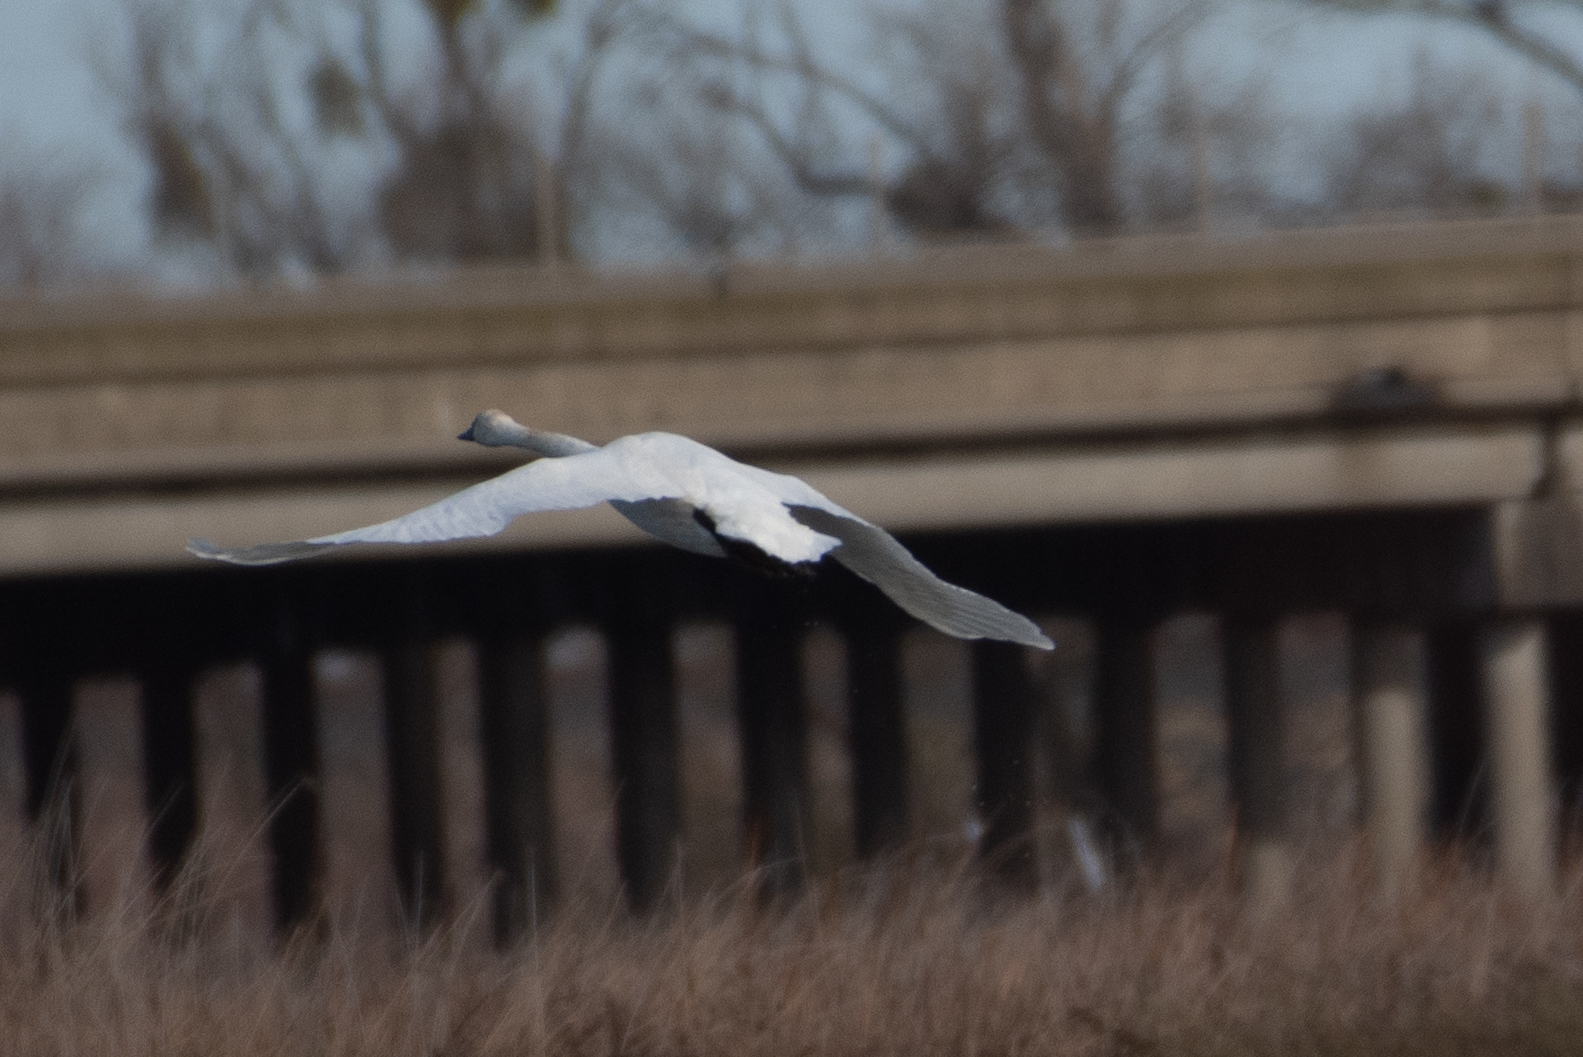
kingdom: Animalia
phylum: Chordata
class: Aves
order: Anseriformes
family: Anatidae
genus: Cygnus
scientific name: Cygnus columbianus
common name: Tundra swan
